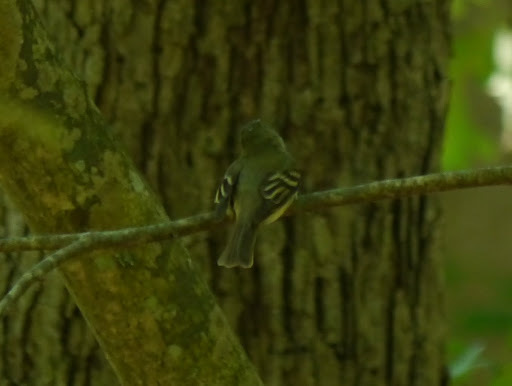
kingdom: Animalia
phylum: Chordata
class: Aves
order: Passeriformes
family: Tyrannidae
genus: Empidonax
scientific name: Empidonax virescens
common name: Acadian flycatcher
